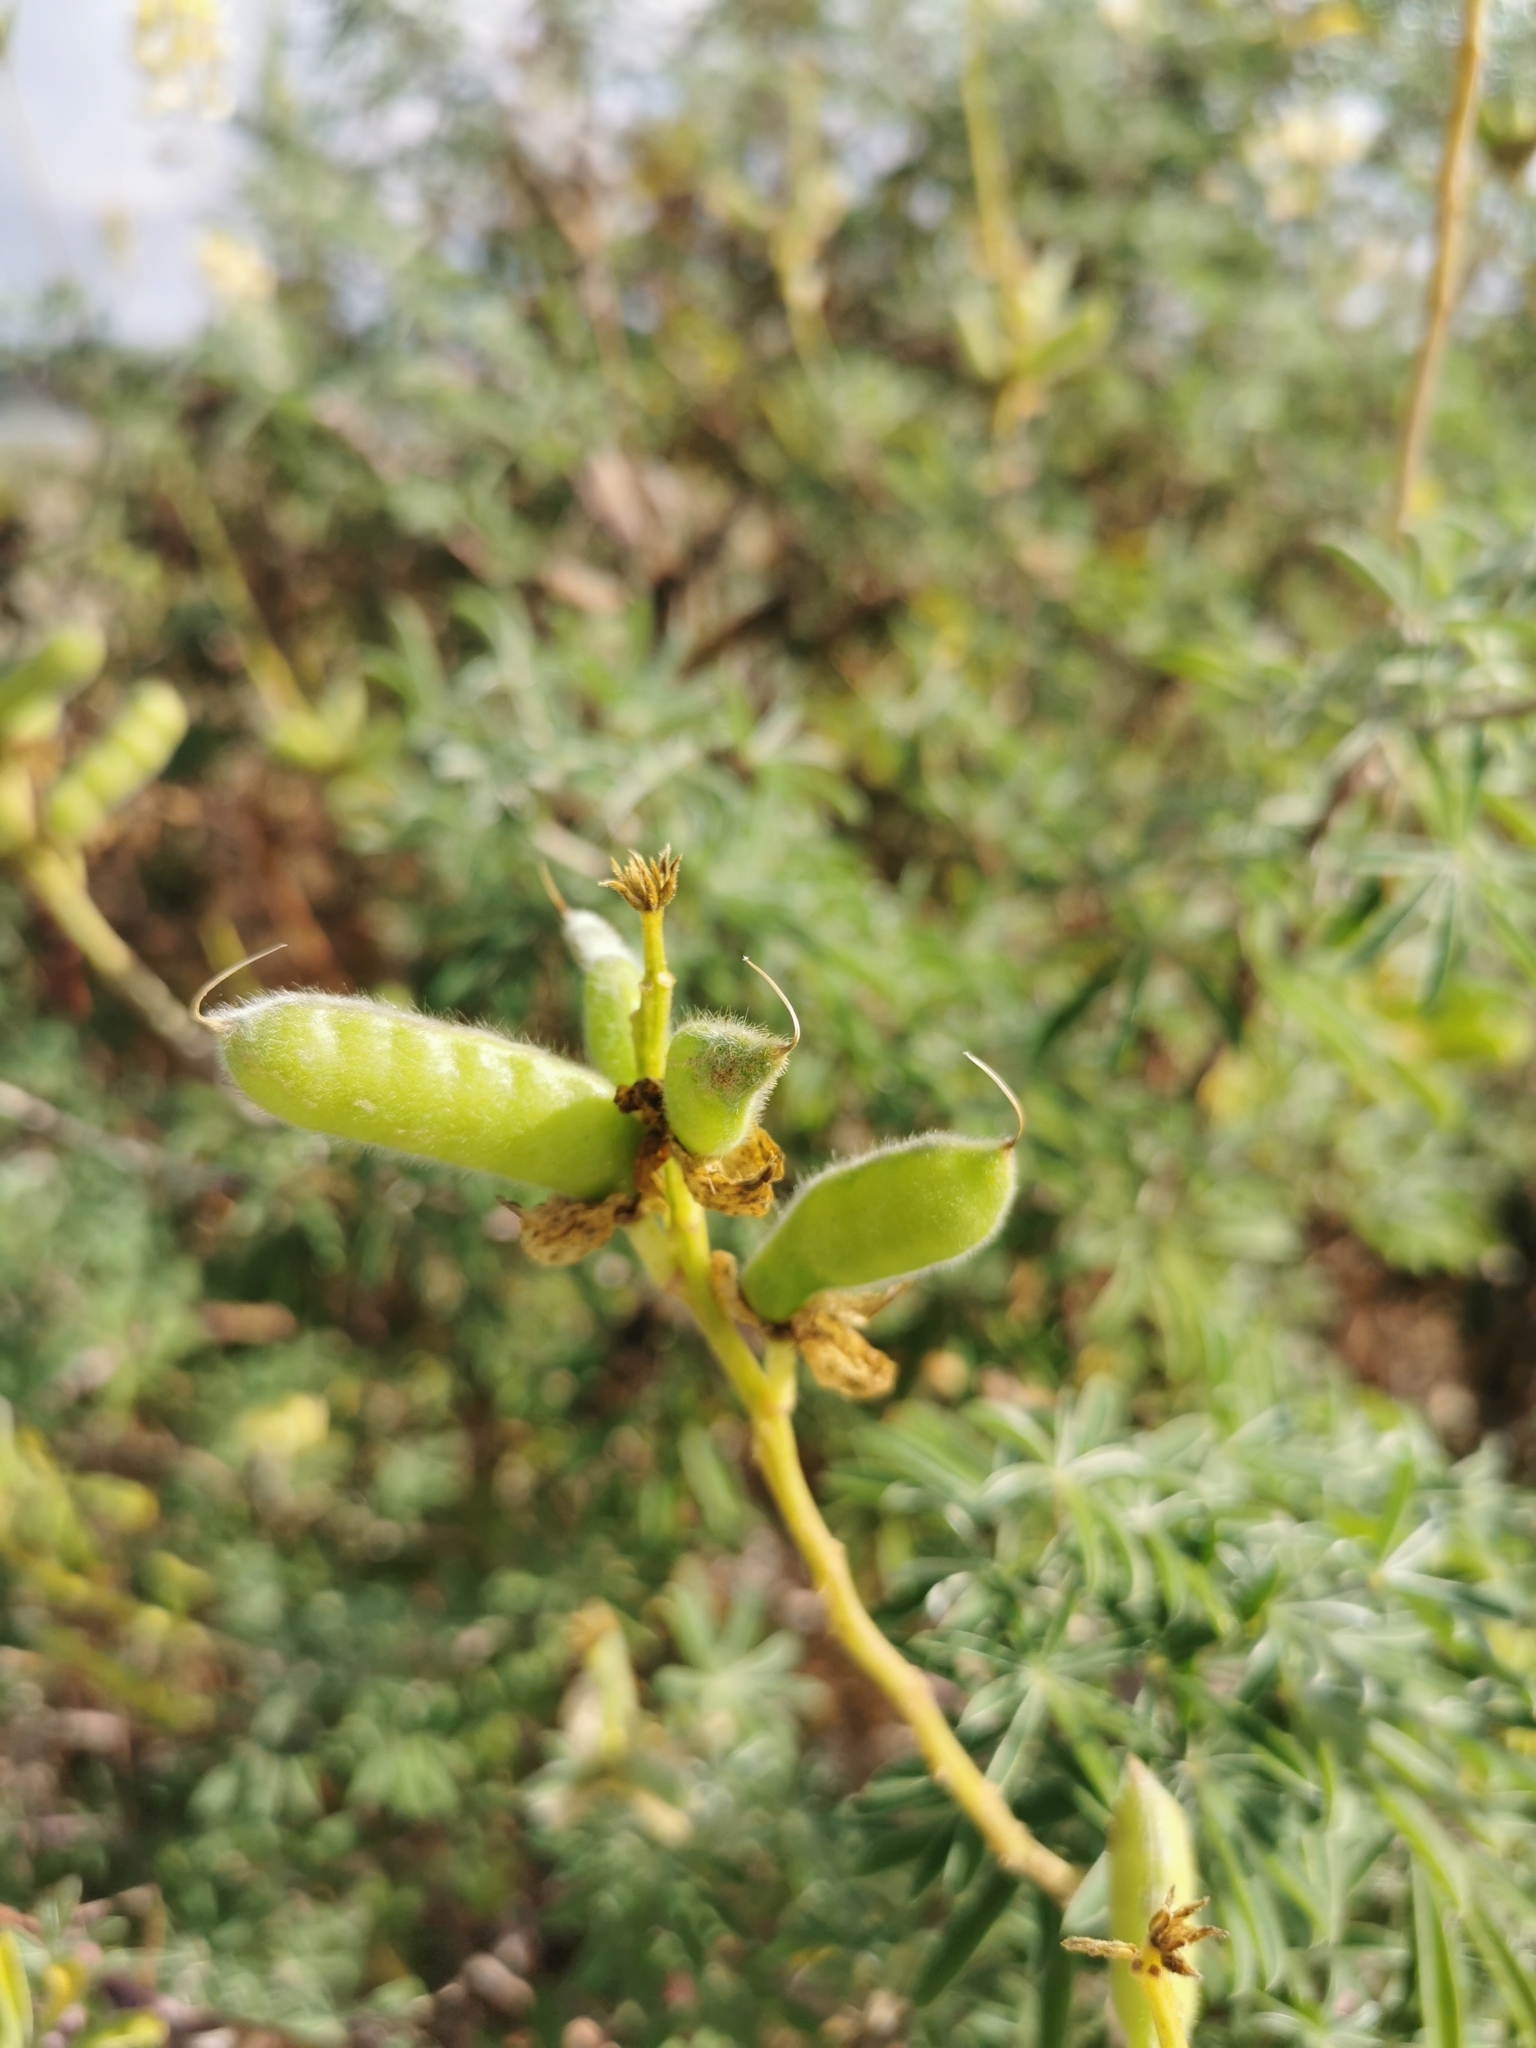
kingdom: Plantae
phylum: Tracheophyta
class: Magnoliopsida
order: Fabales
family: Fabaceae
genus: Lupinus
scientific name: Lupinus arboreus
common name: Yellow bush lupine
